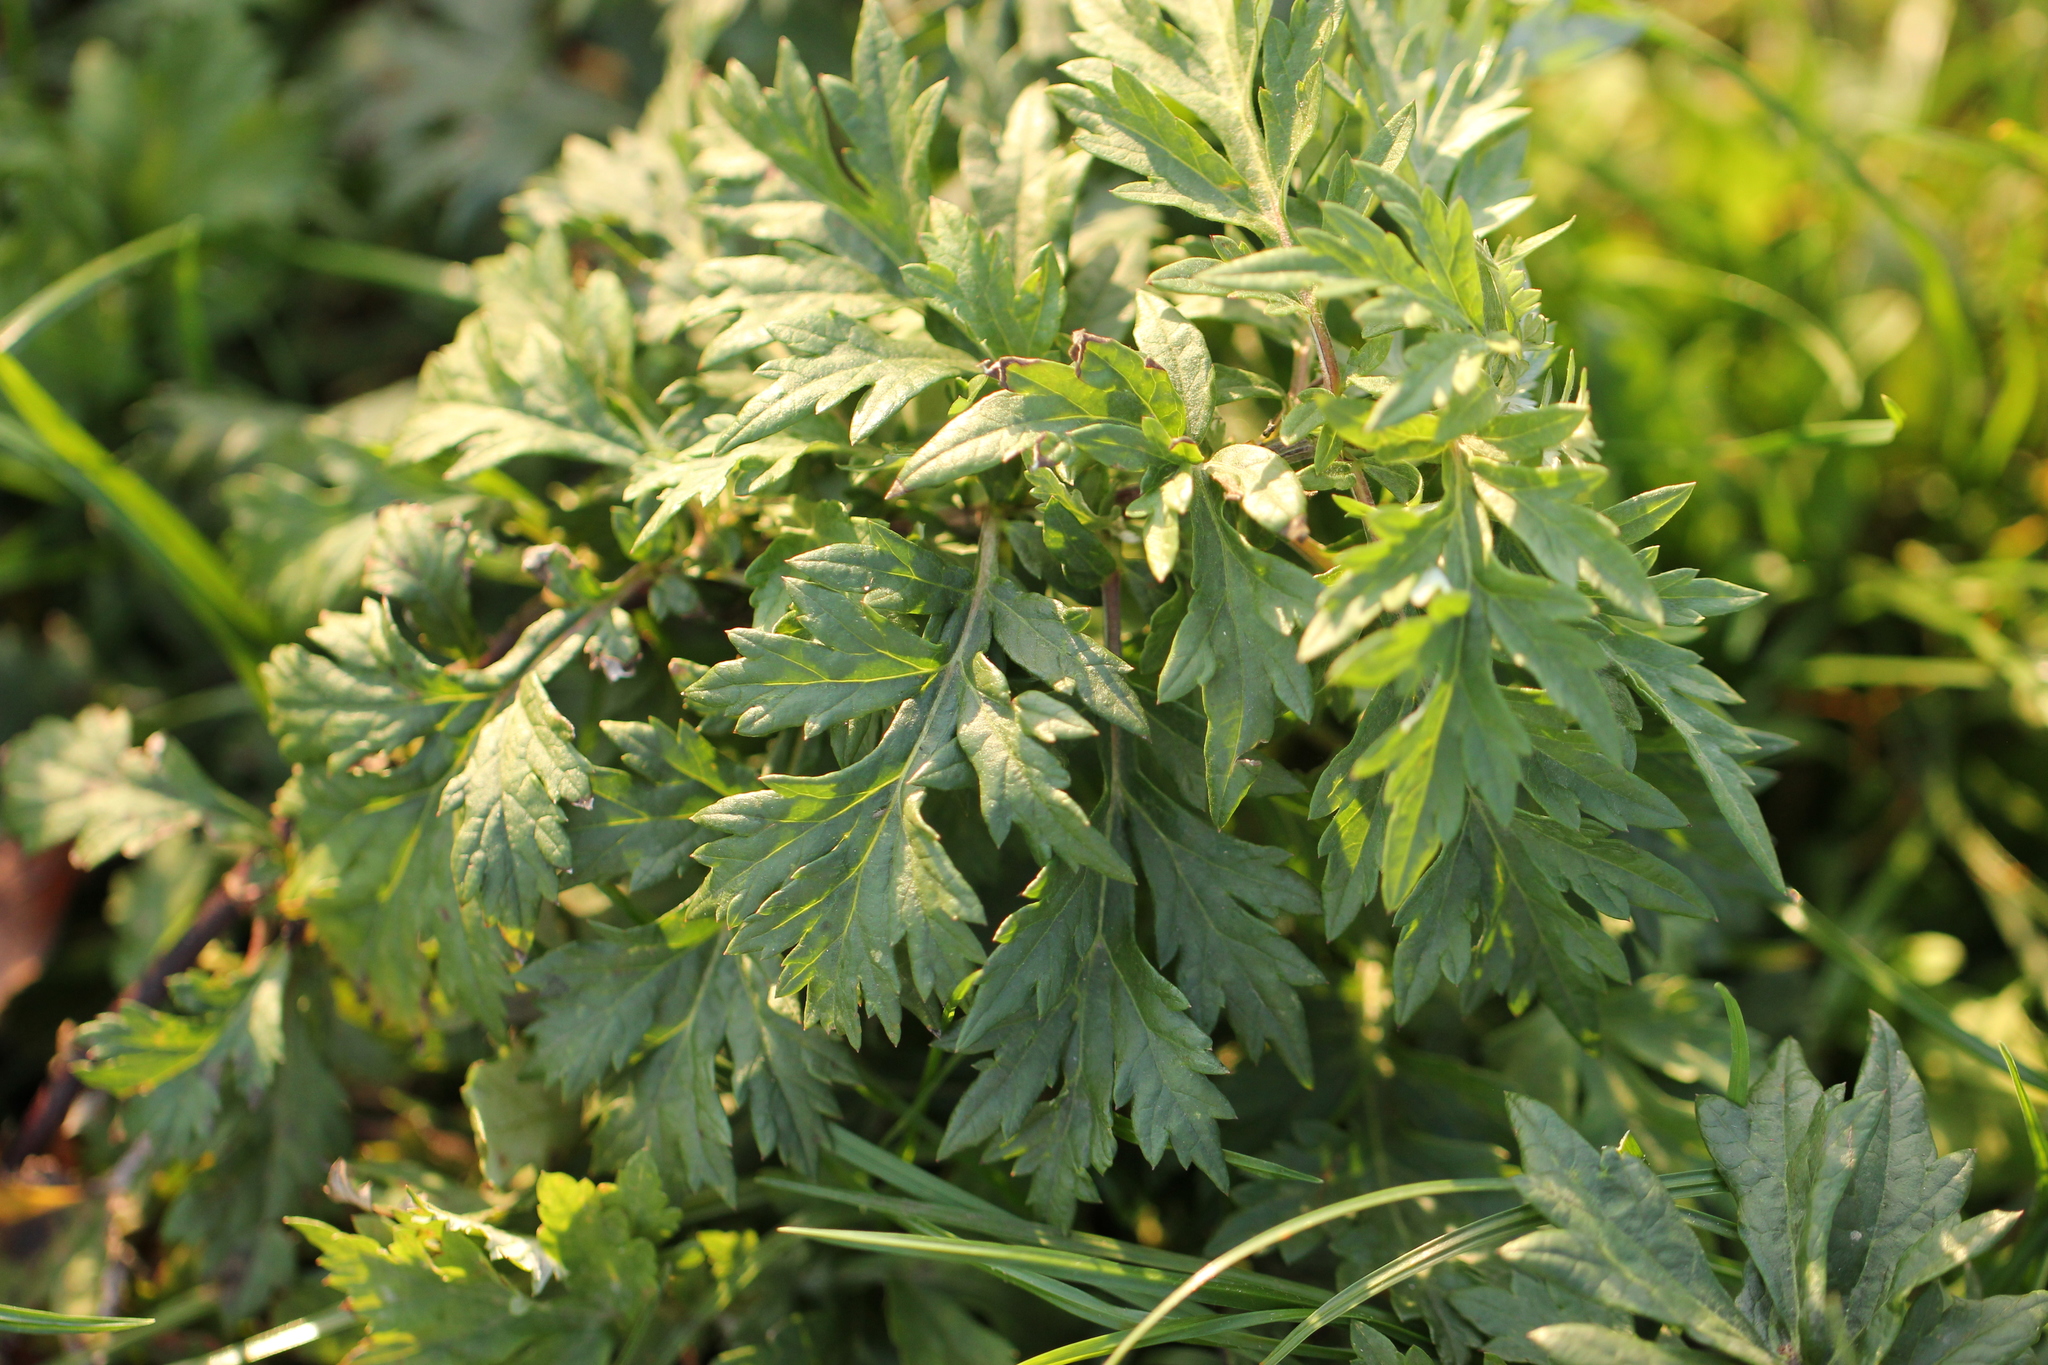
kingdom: Plantae
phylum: Tracheophyta
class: Magnoliopsida
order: Asterales
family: Asteraceae
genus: Artemisia
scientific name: Artemisia vulgaris
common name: Mugwort
